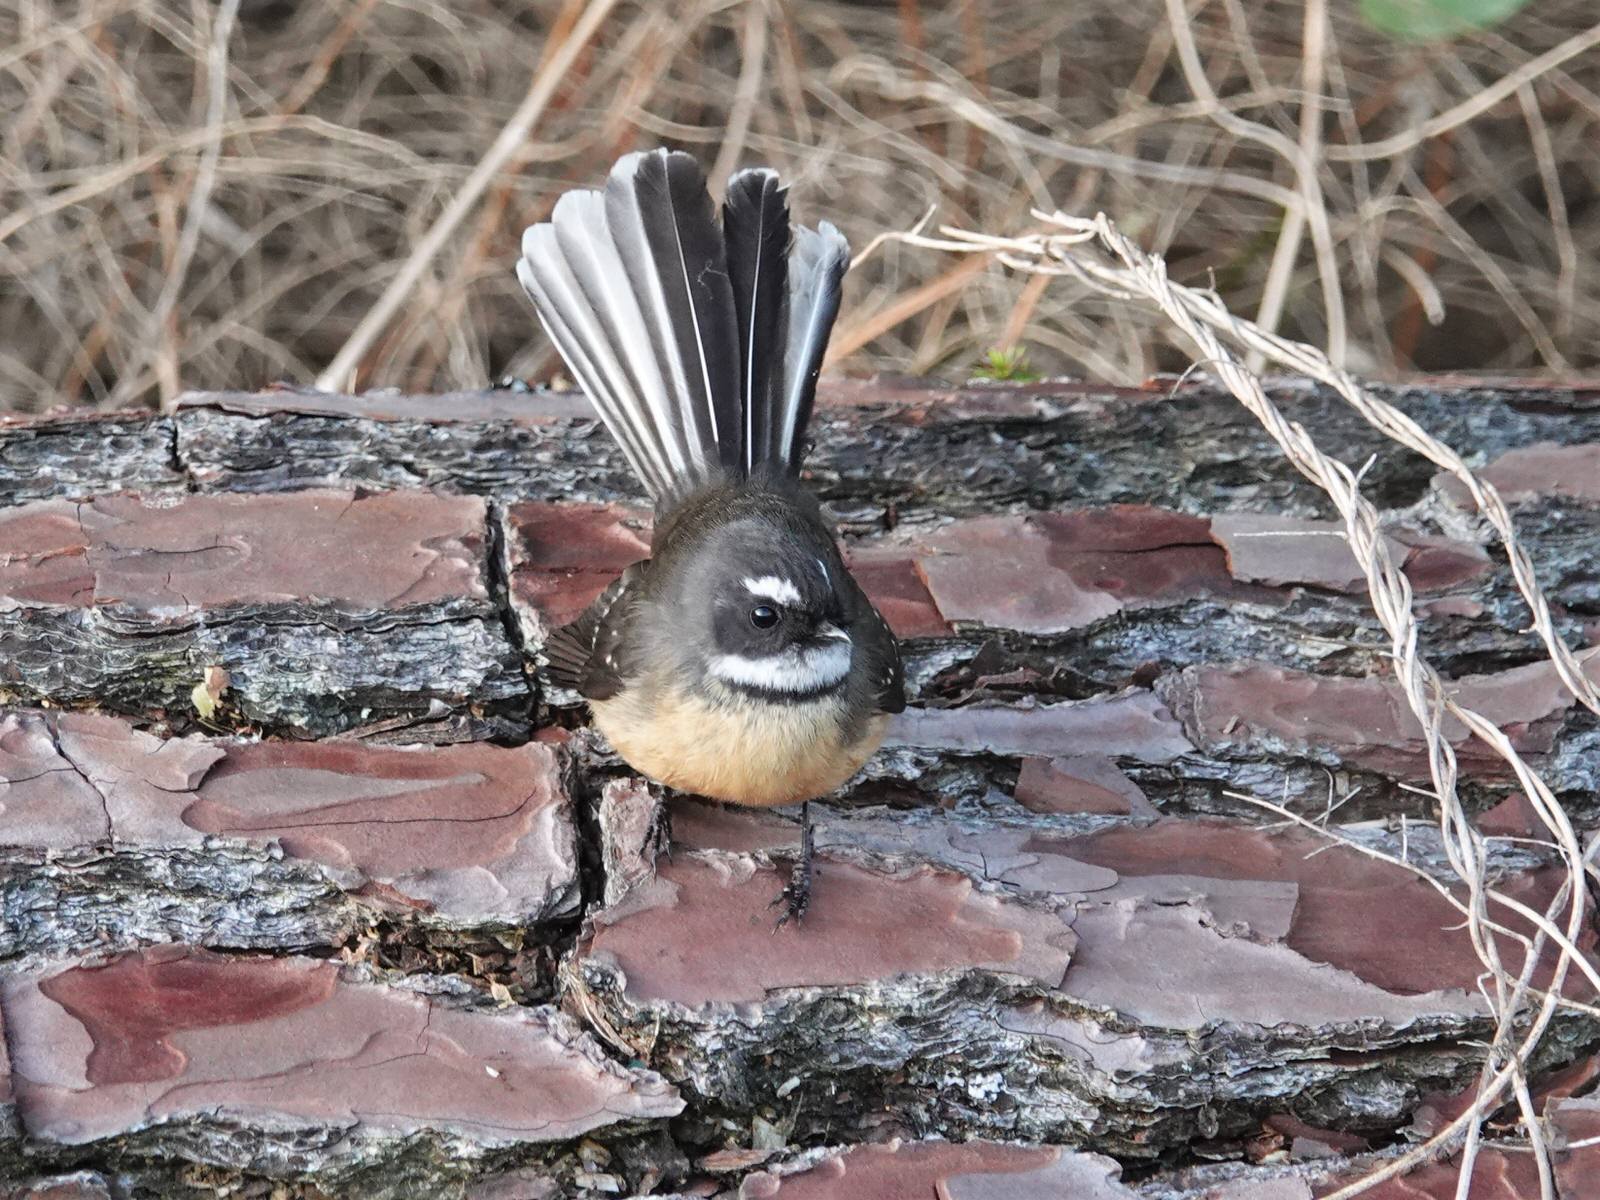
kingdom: Animalia
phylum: Chordata
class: Aves
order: Passeriformes
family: Rhipiduridae
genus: Rhipidura
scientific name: Rhipidura fuliginosa
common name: New zealand fantail
